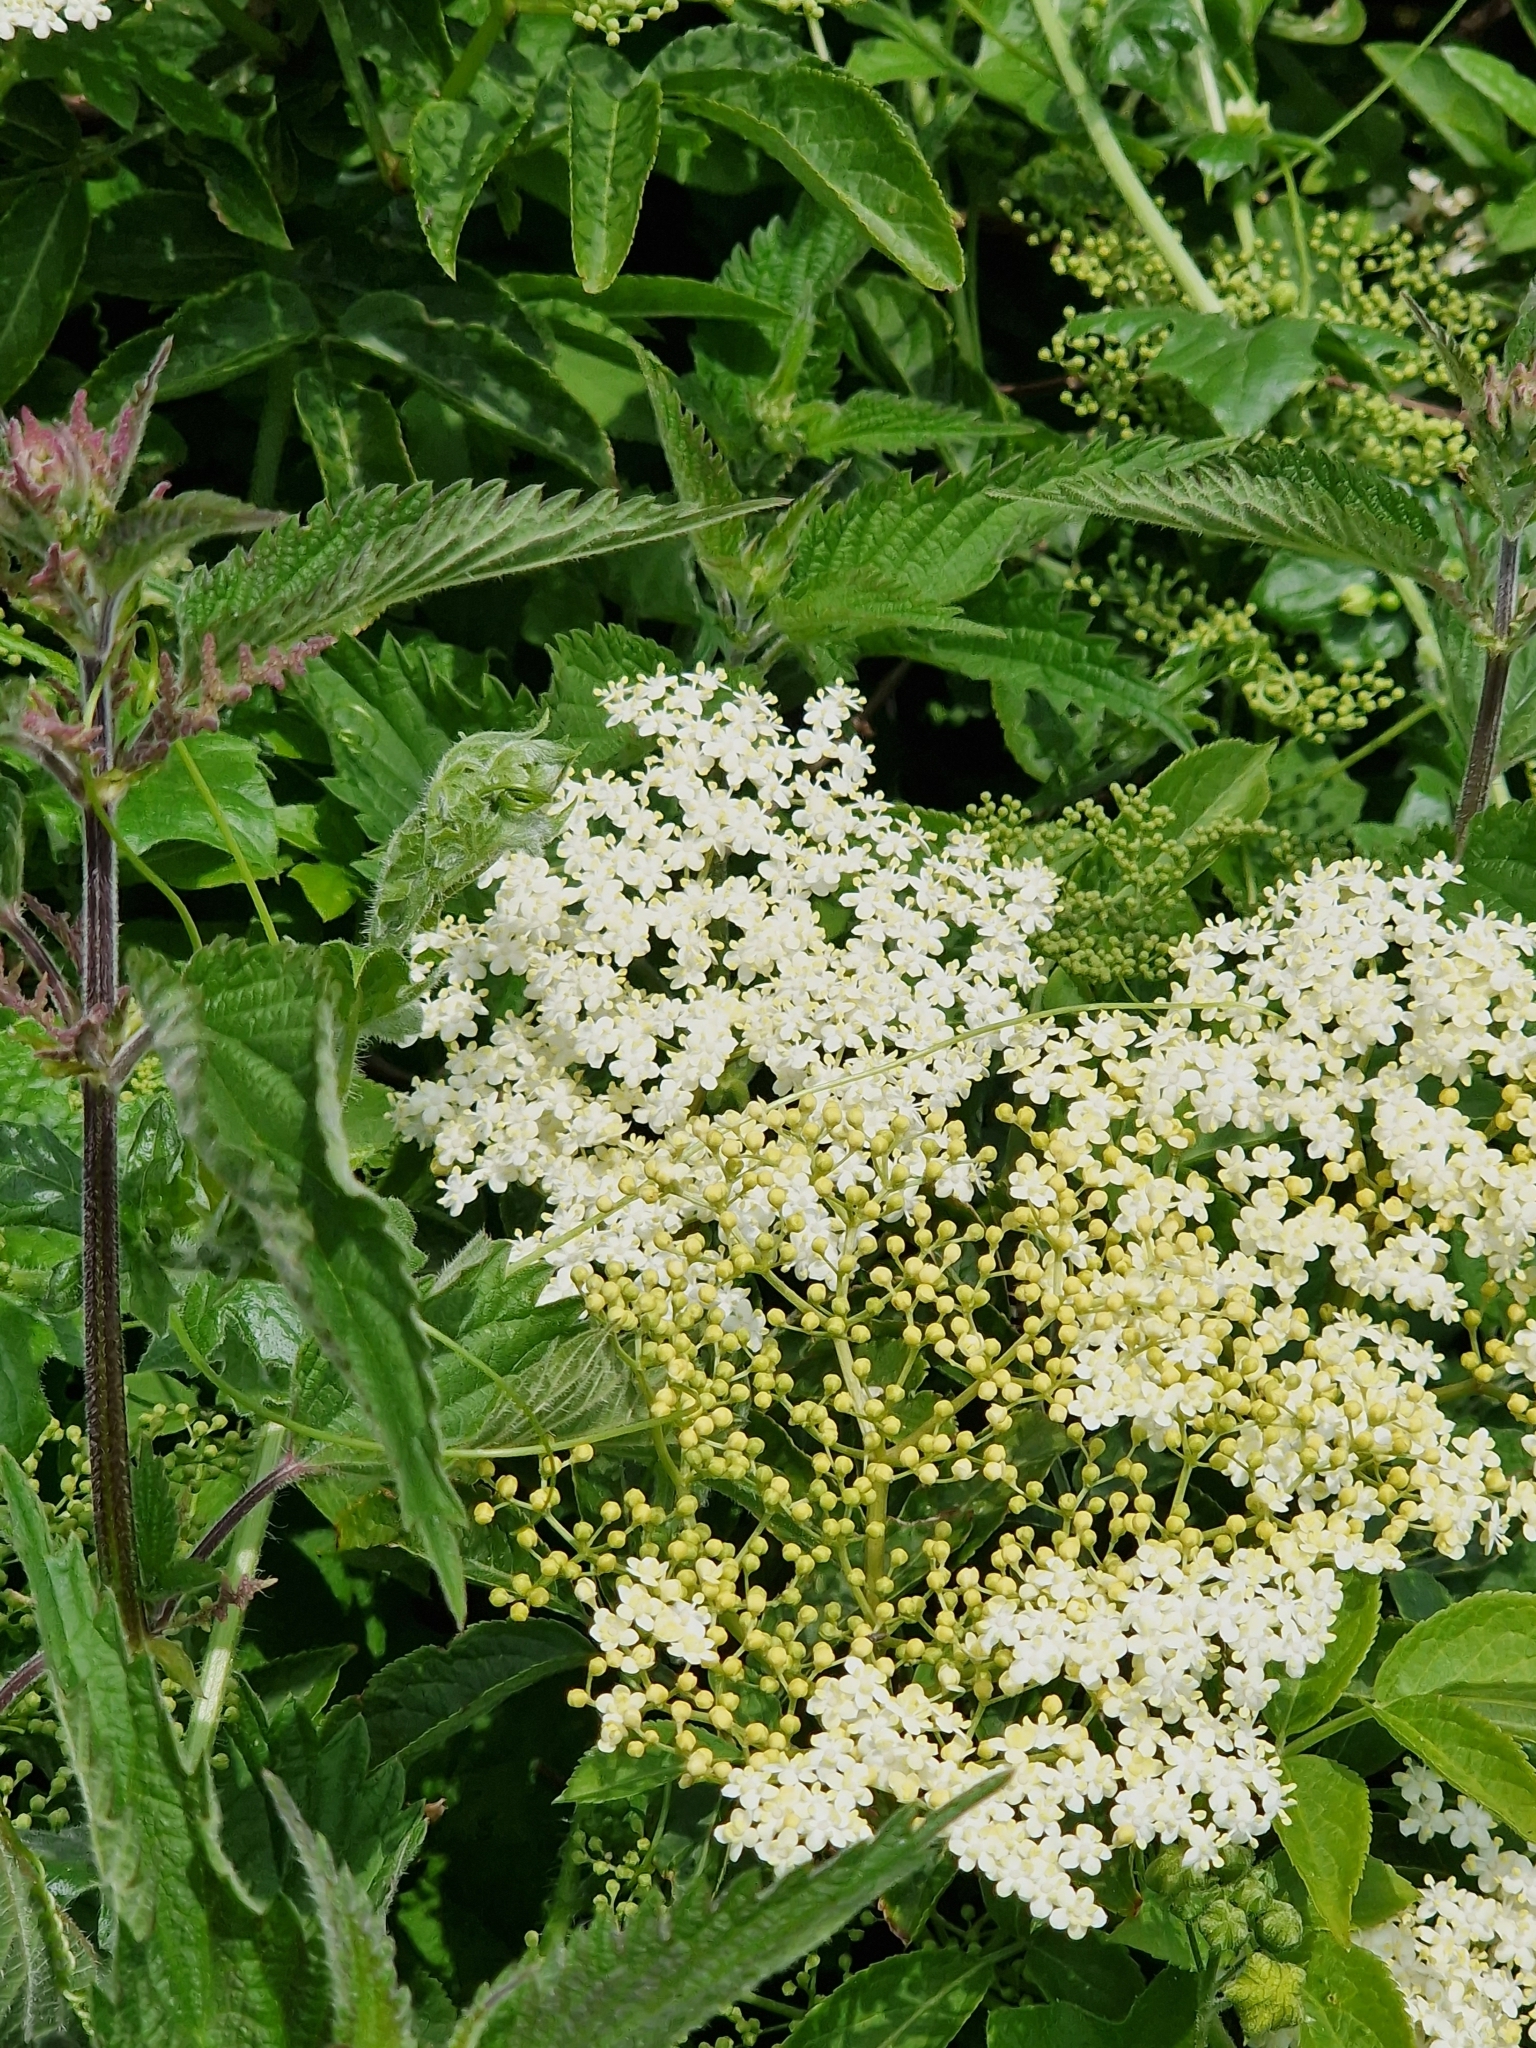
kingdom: Plantae
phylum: Tracheophyta
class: Magnoliopsida
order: Dipsacales
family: Viburnaceae
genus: Sambucus
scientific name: Sambucus nigra
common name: Elder
